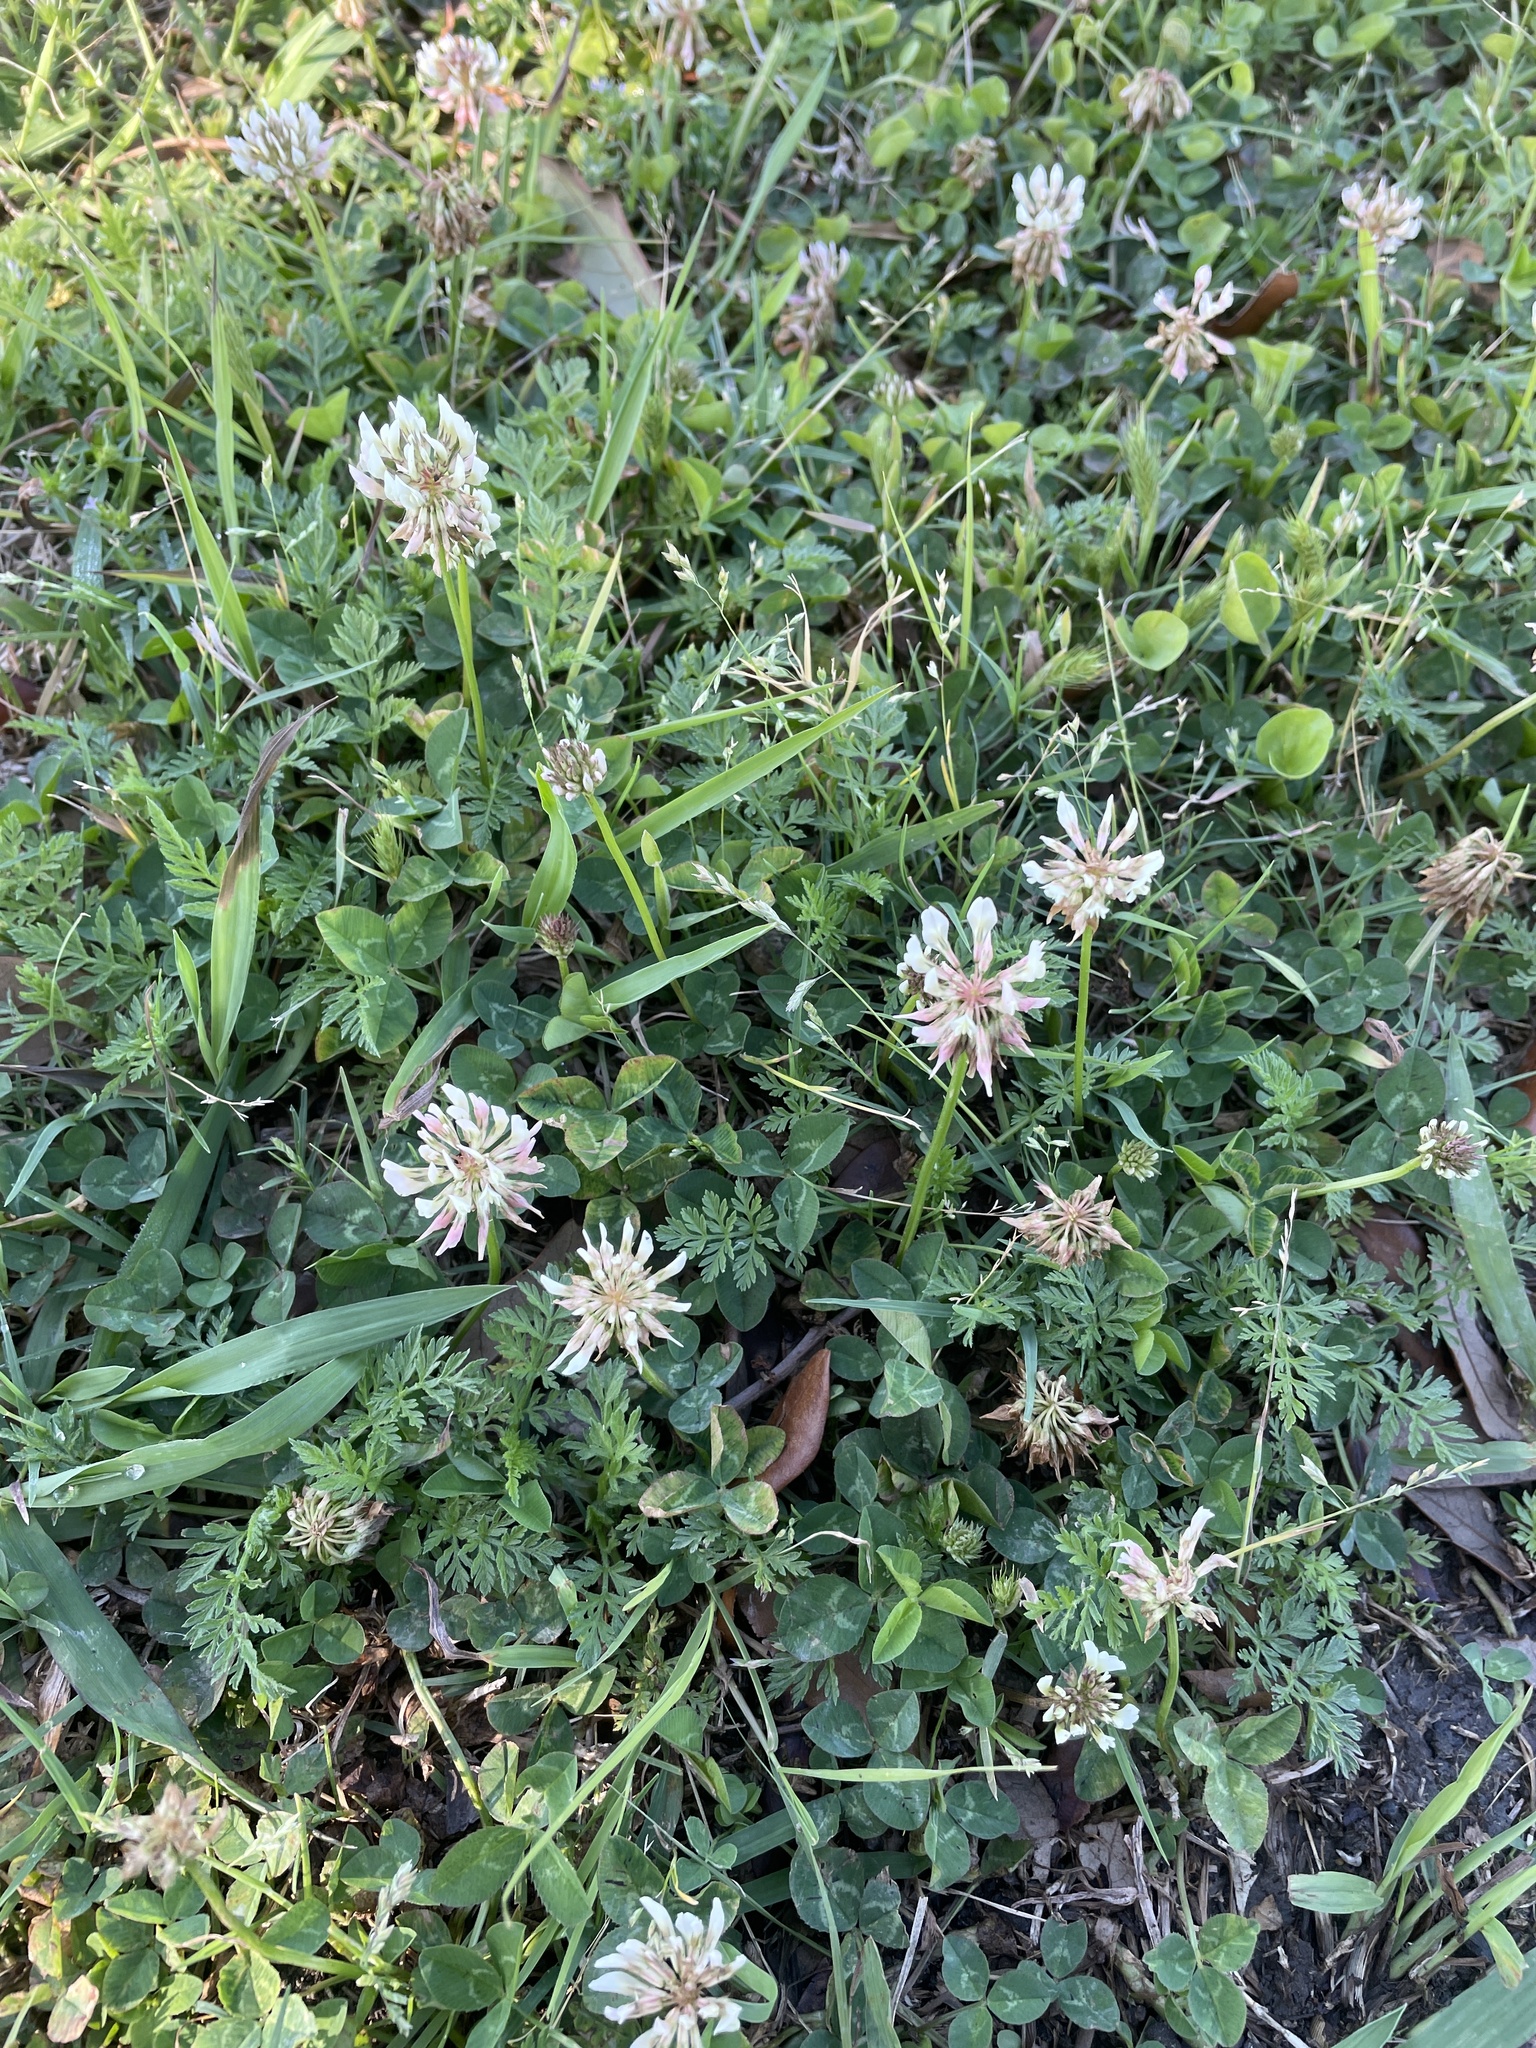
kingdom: Plantae
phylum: Tracheophyta
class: Magnoliopsida
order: Fabales
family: Fabaceae
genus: Trifolium
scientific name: Trifolium repens
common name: White clover
